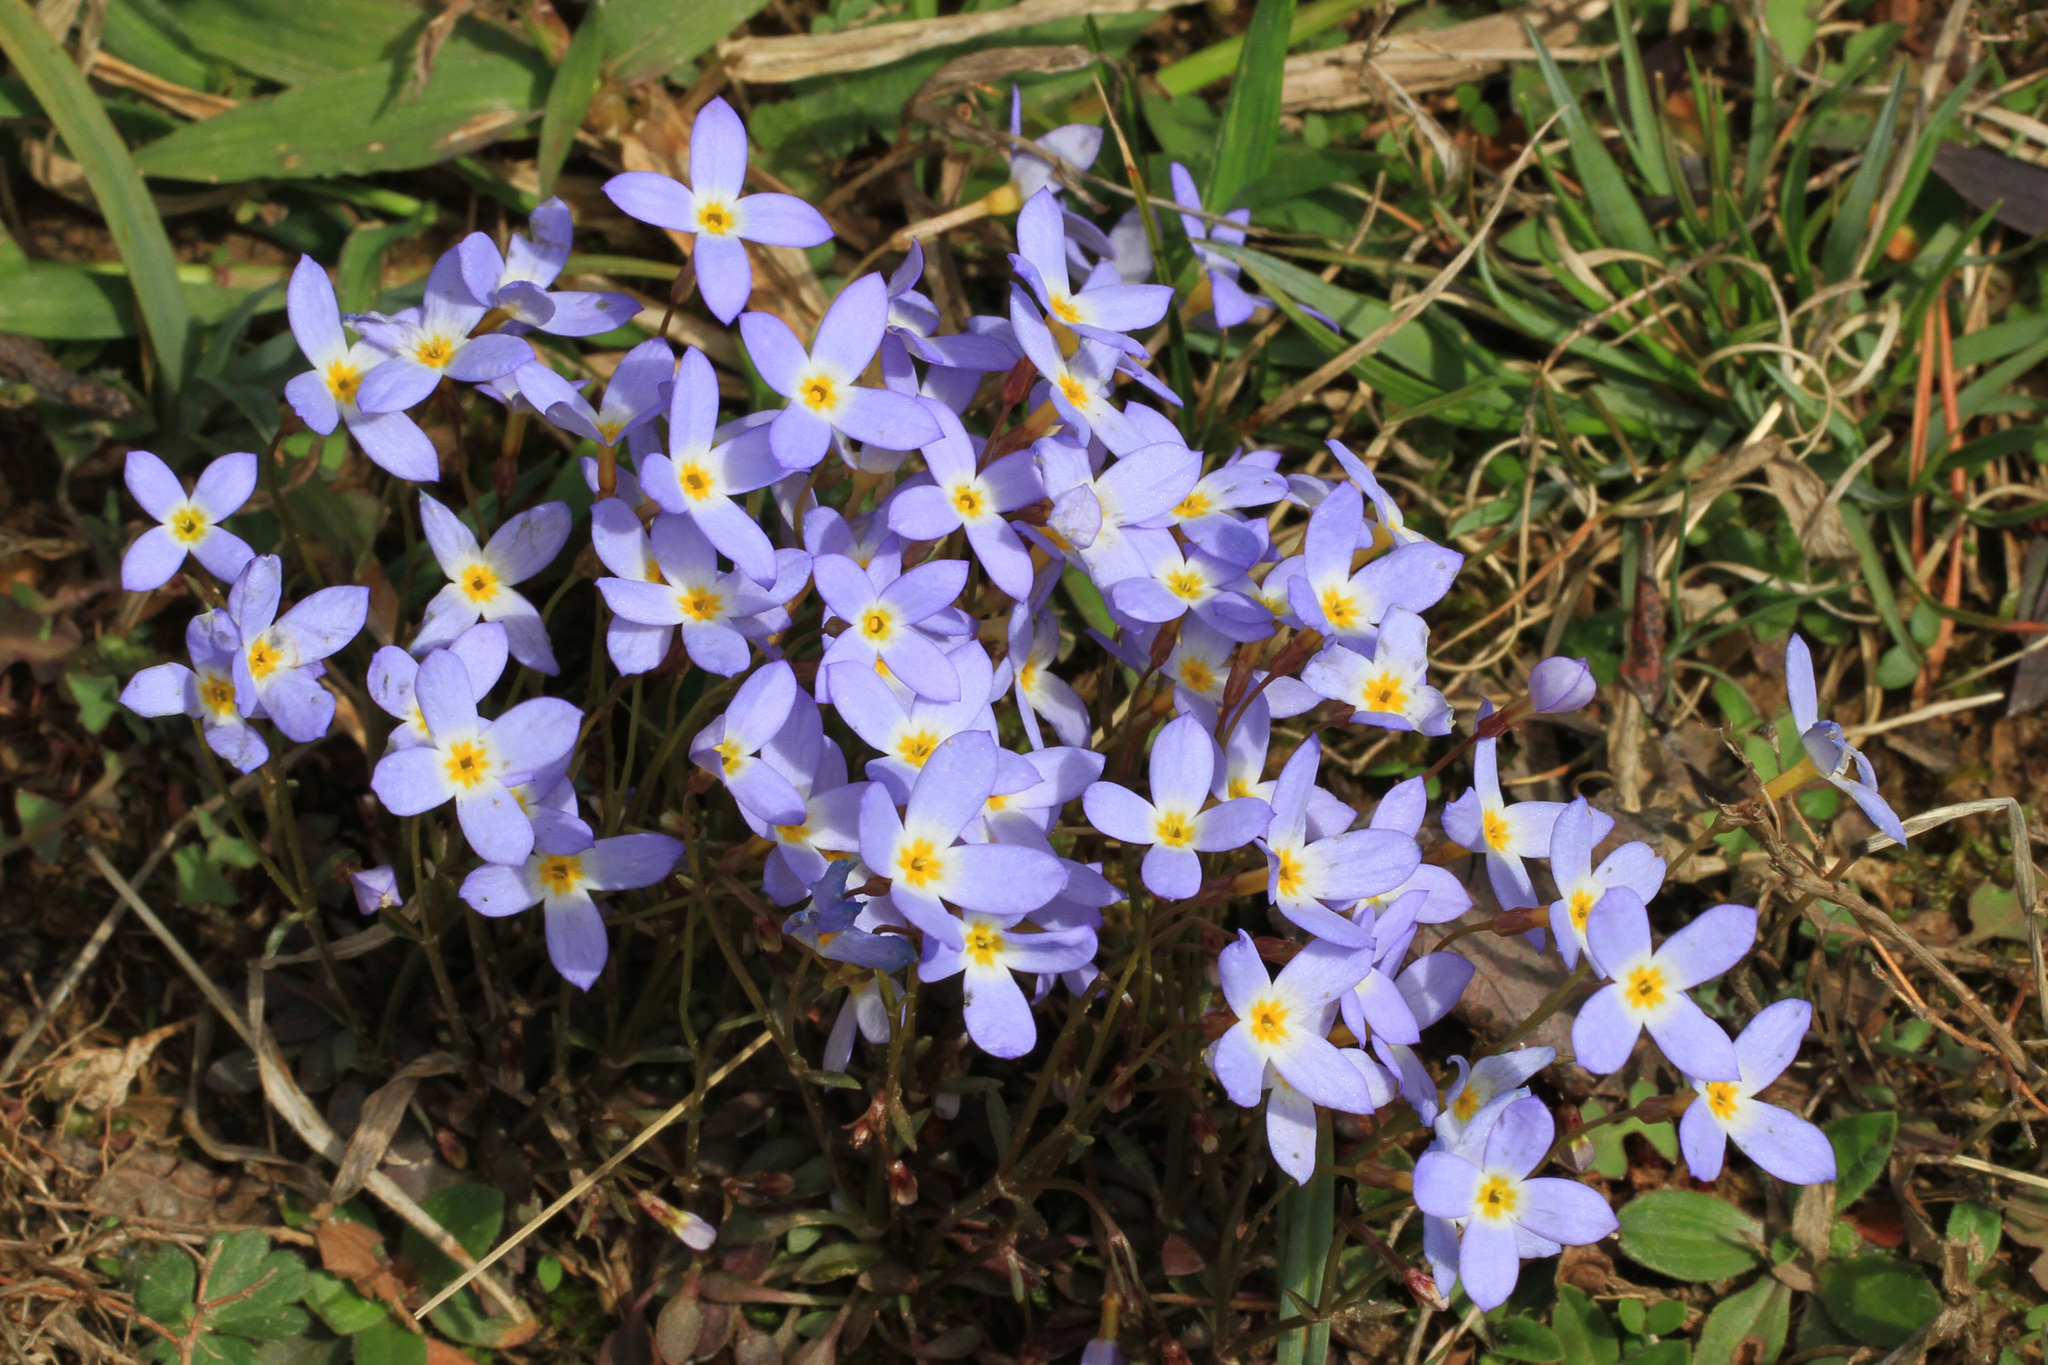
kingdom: Plantae
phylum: Tracheophyta
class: Magnoliopsida
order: Gentianales
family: Rubiaceae
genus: Houstonia
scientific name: Houstonia caerulea
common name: Bluets
